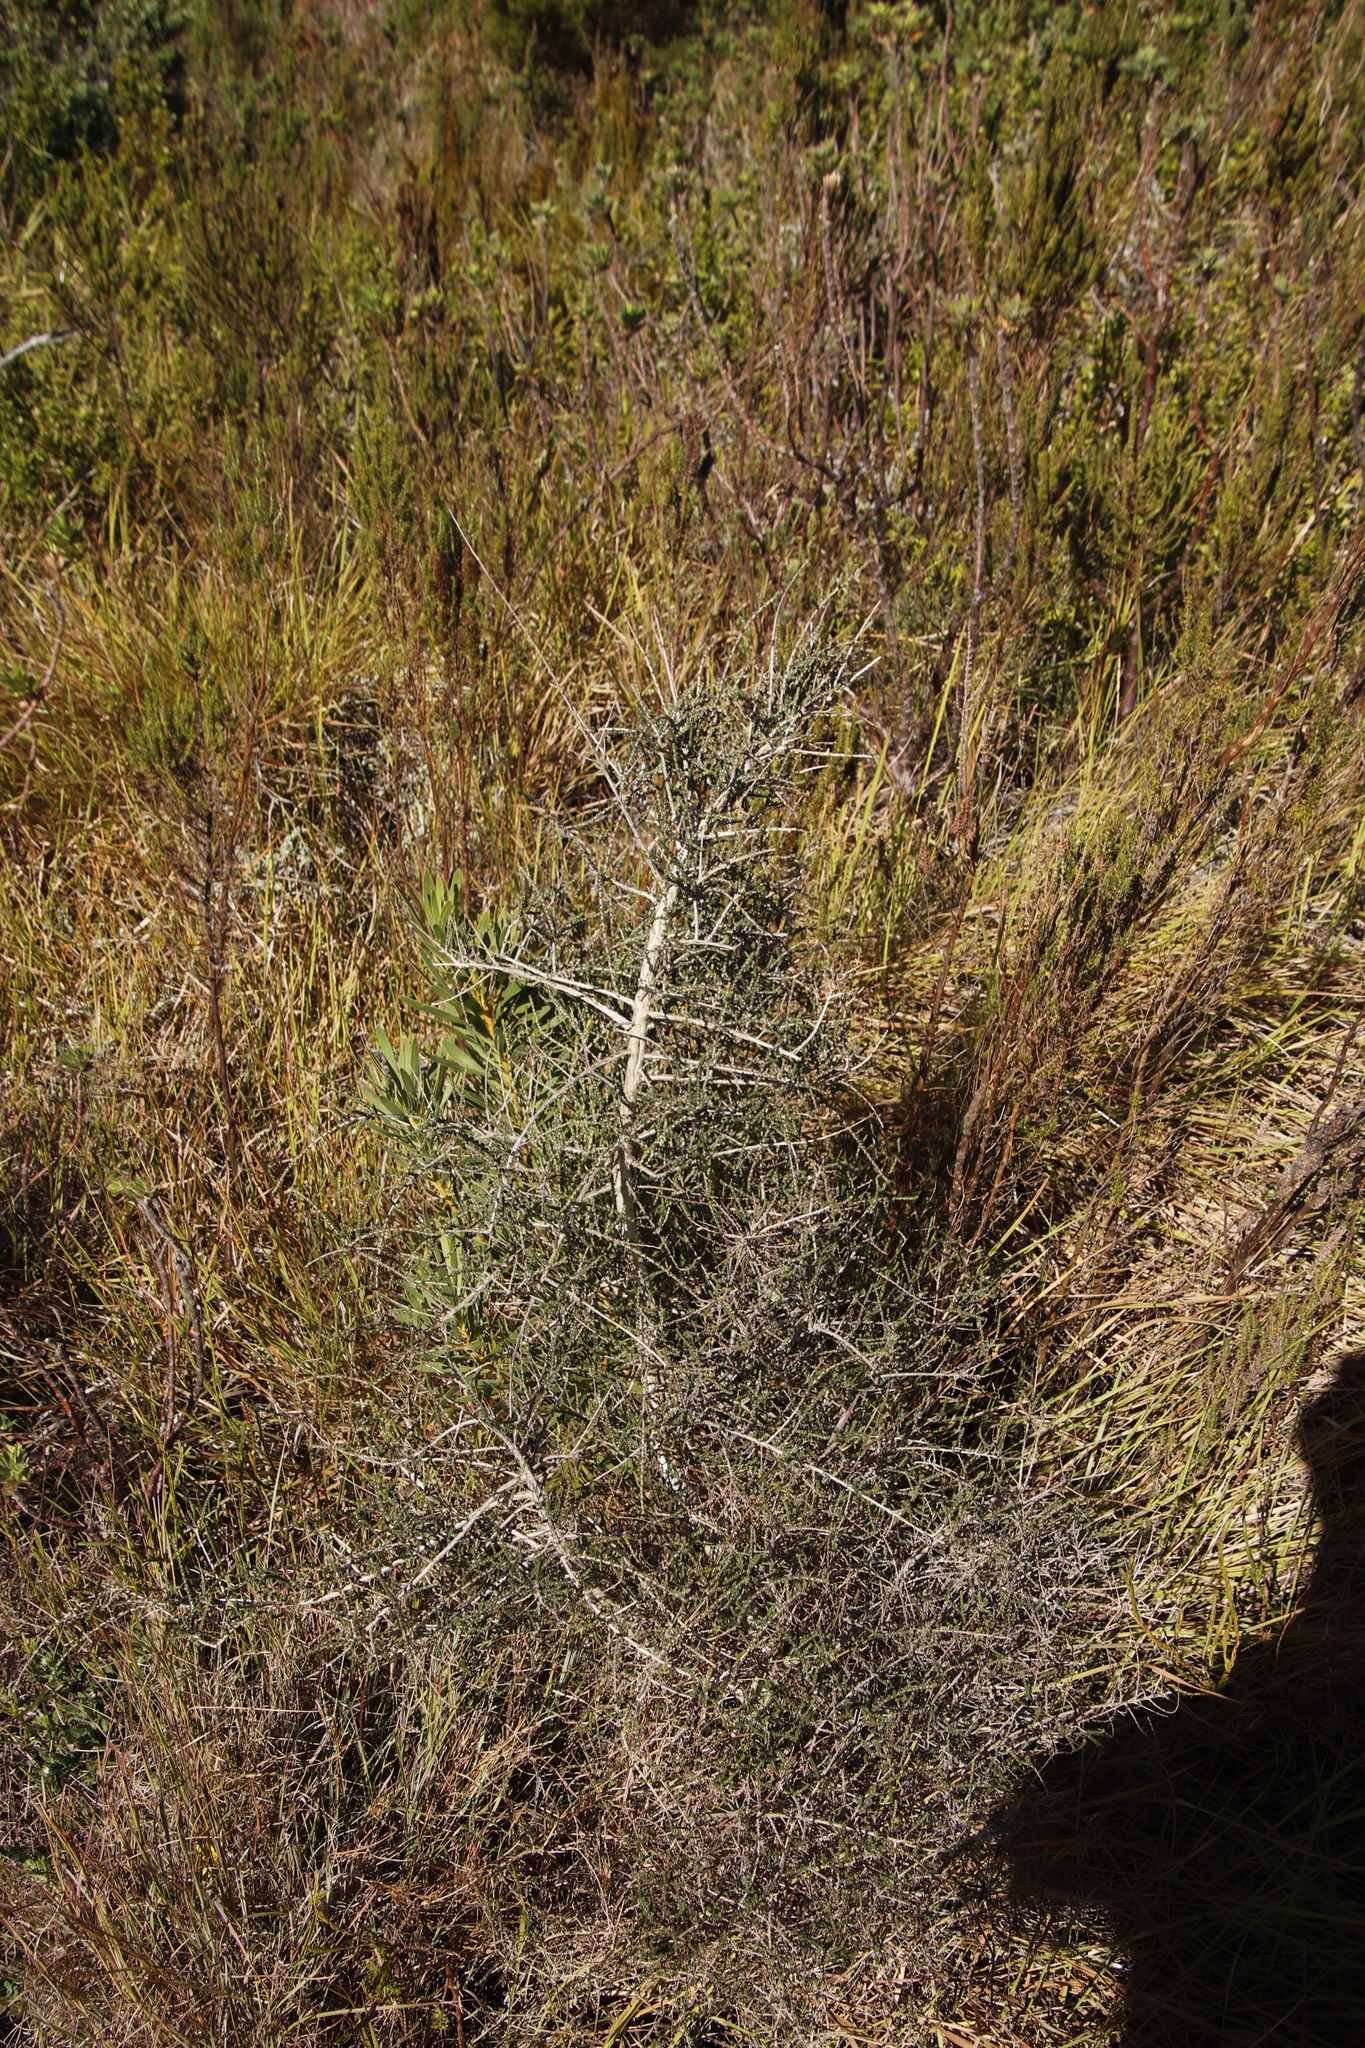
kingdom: Plantae
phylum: Tracheophyta
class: Magnoliopsida
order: Fabales
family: Fabaceae
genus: Aspalathus
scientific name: Aspalathus hispida
